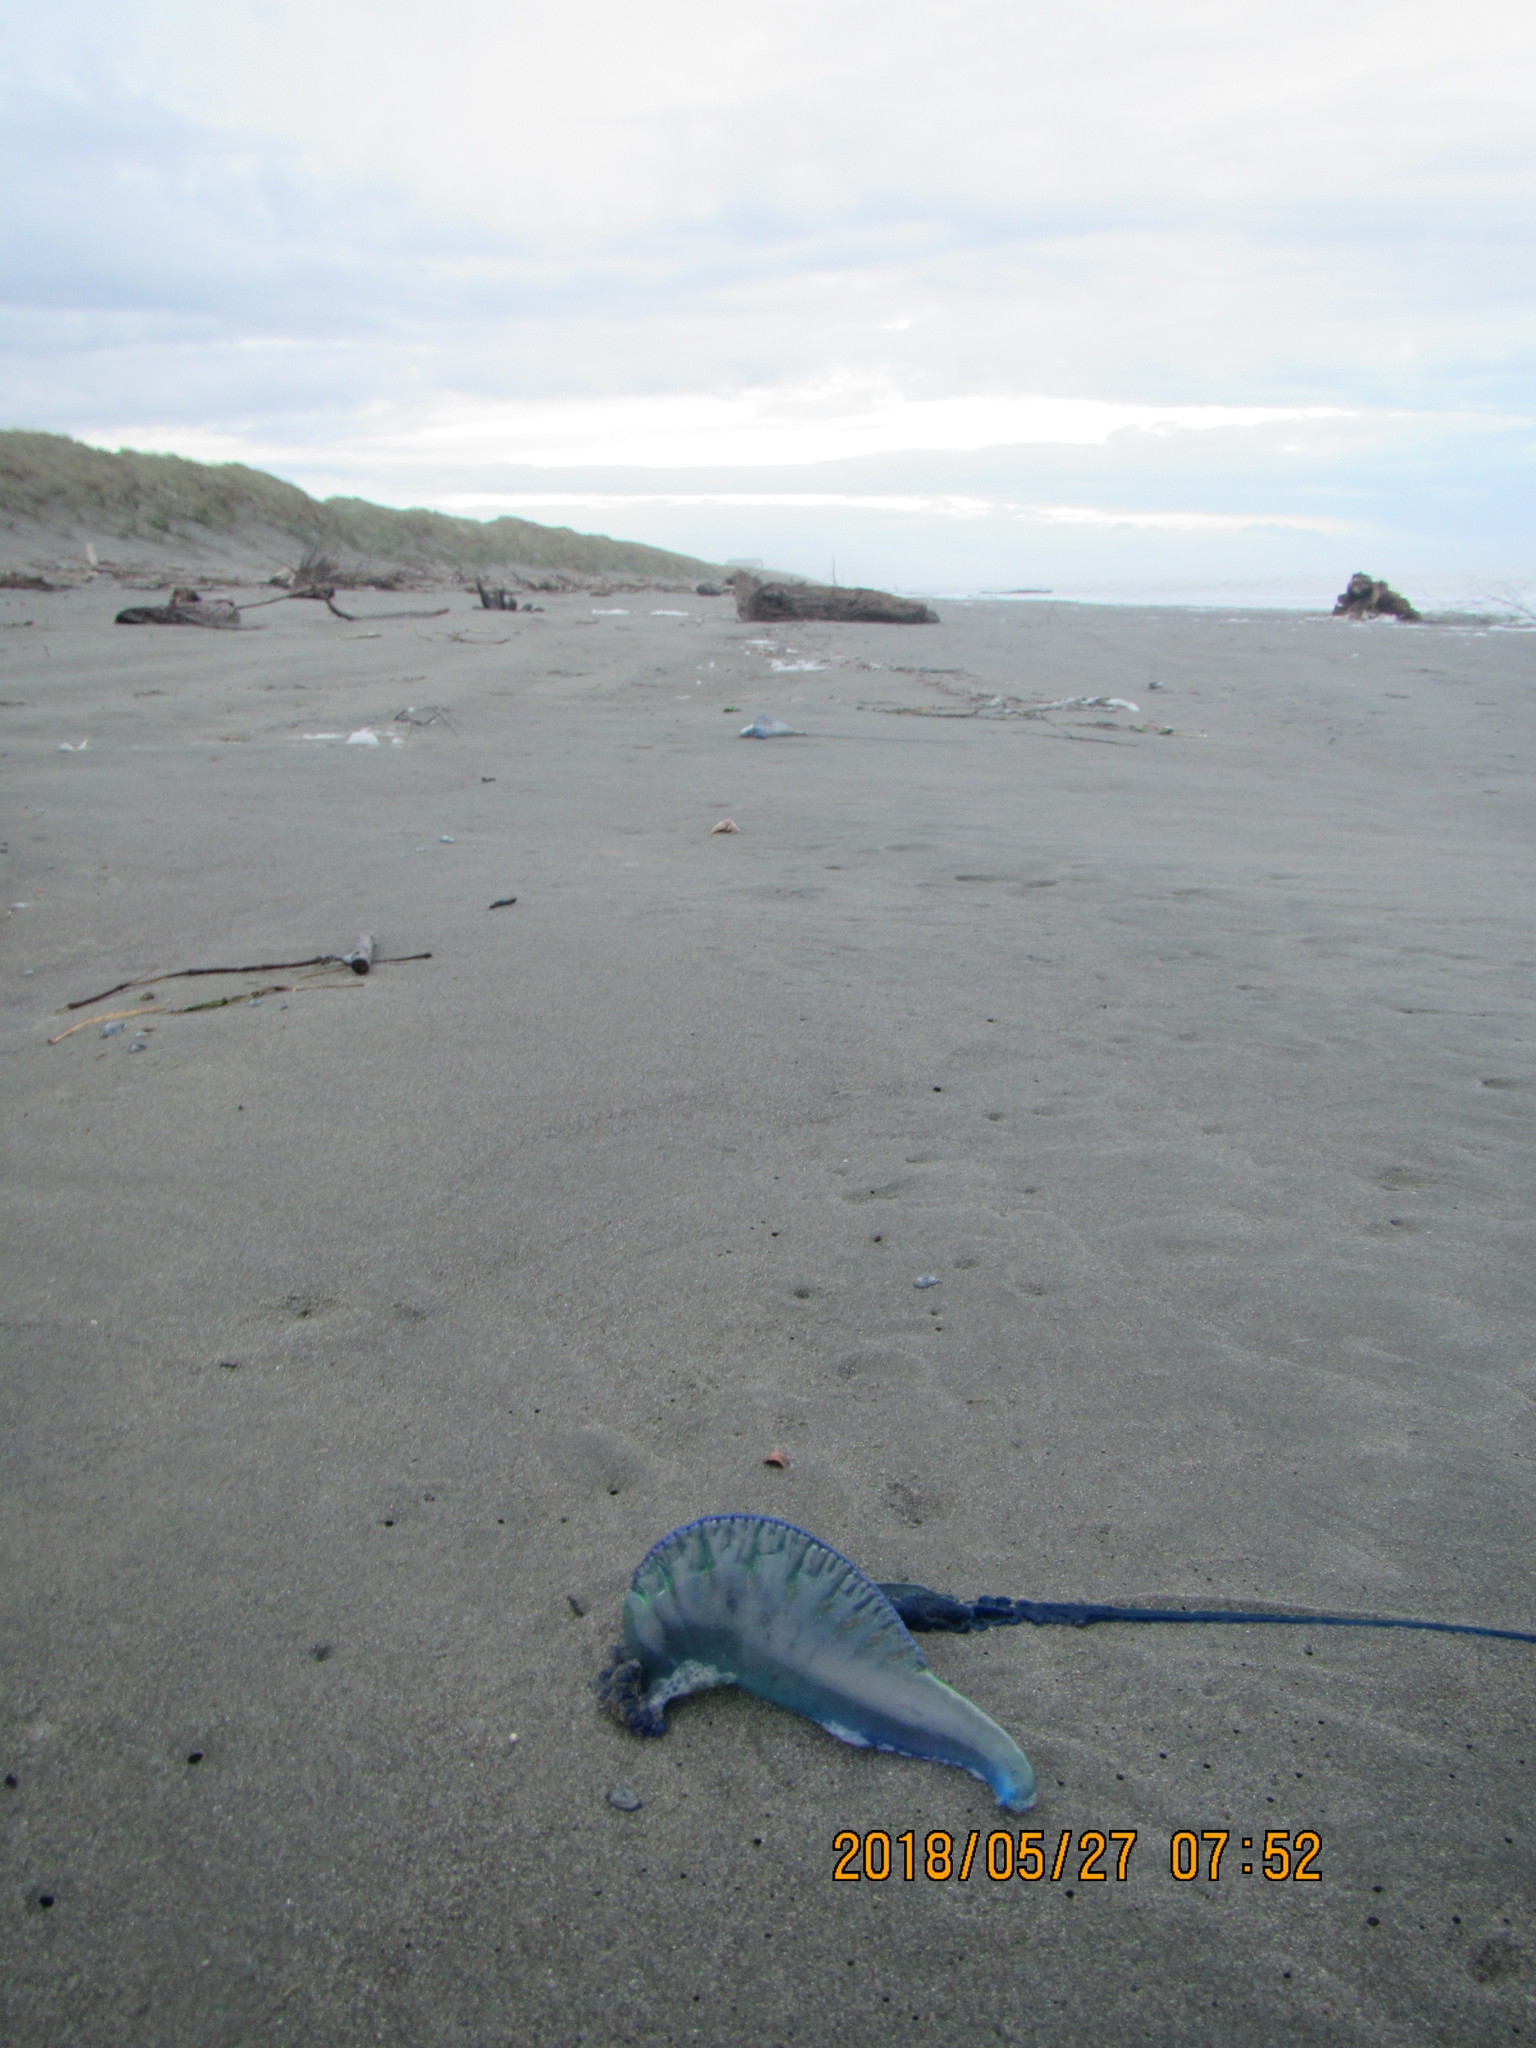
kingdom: Animalia
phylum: Cnidaria
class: Hydrozoa
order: Siphonophorae
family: Physaliidae
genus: Physalia
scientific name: Physalia physalis
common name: Portuguese man-of-war
